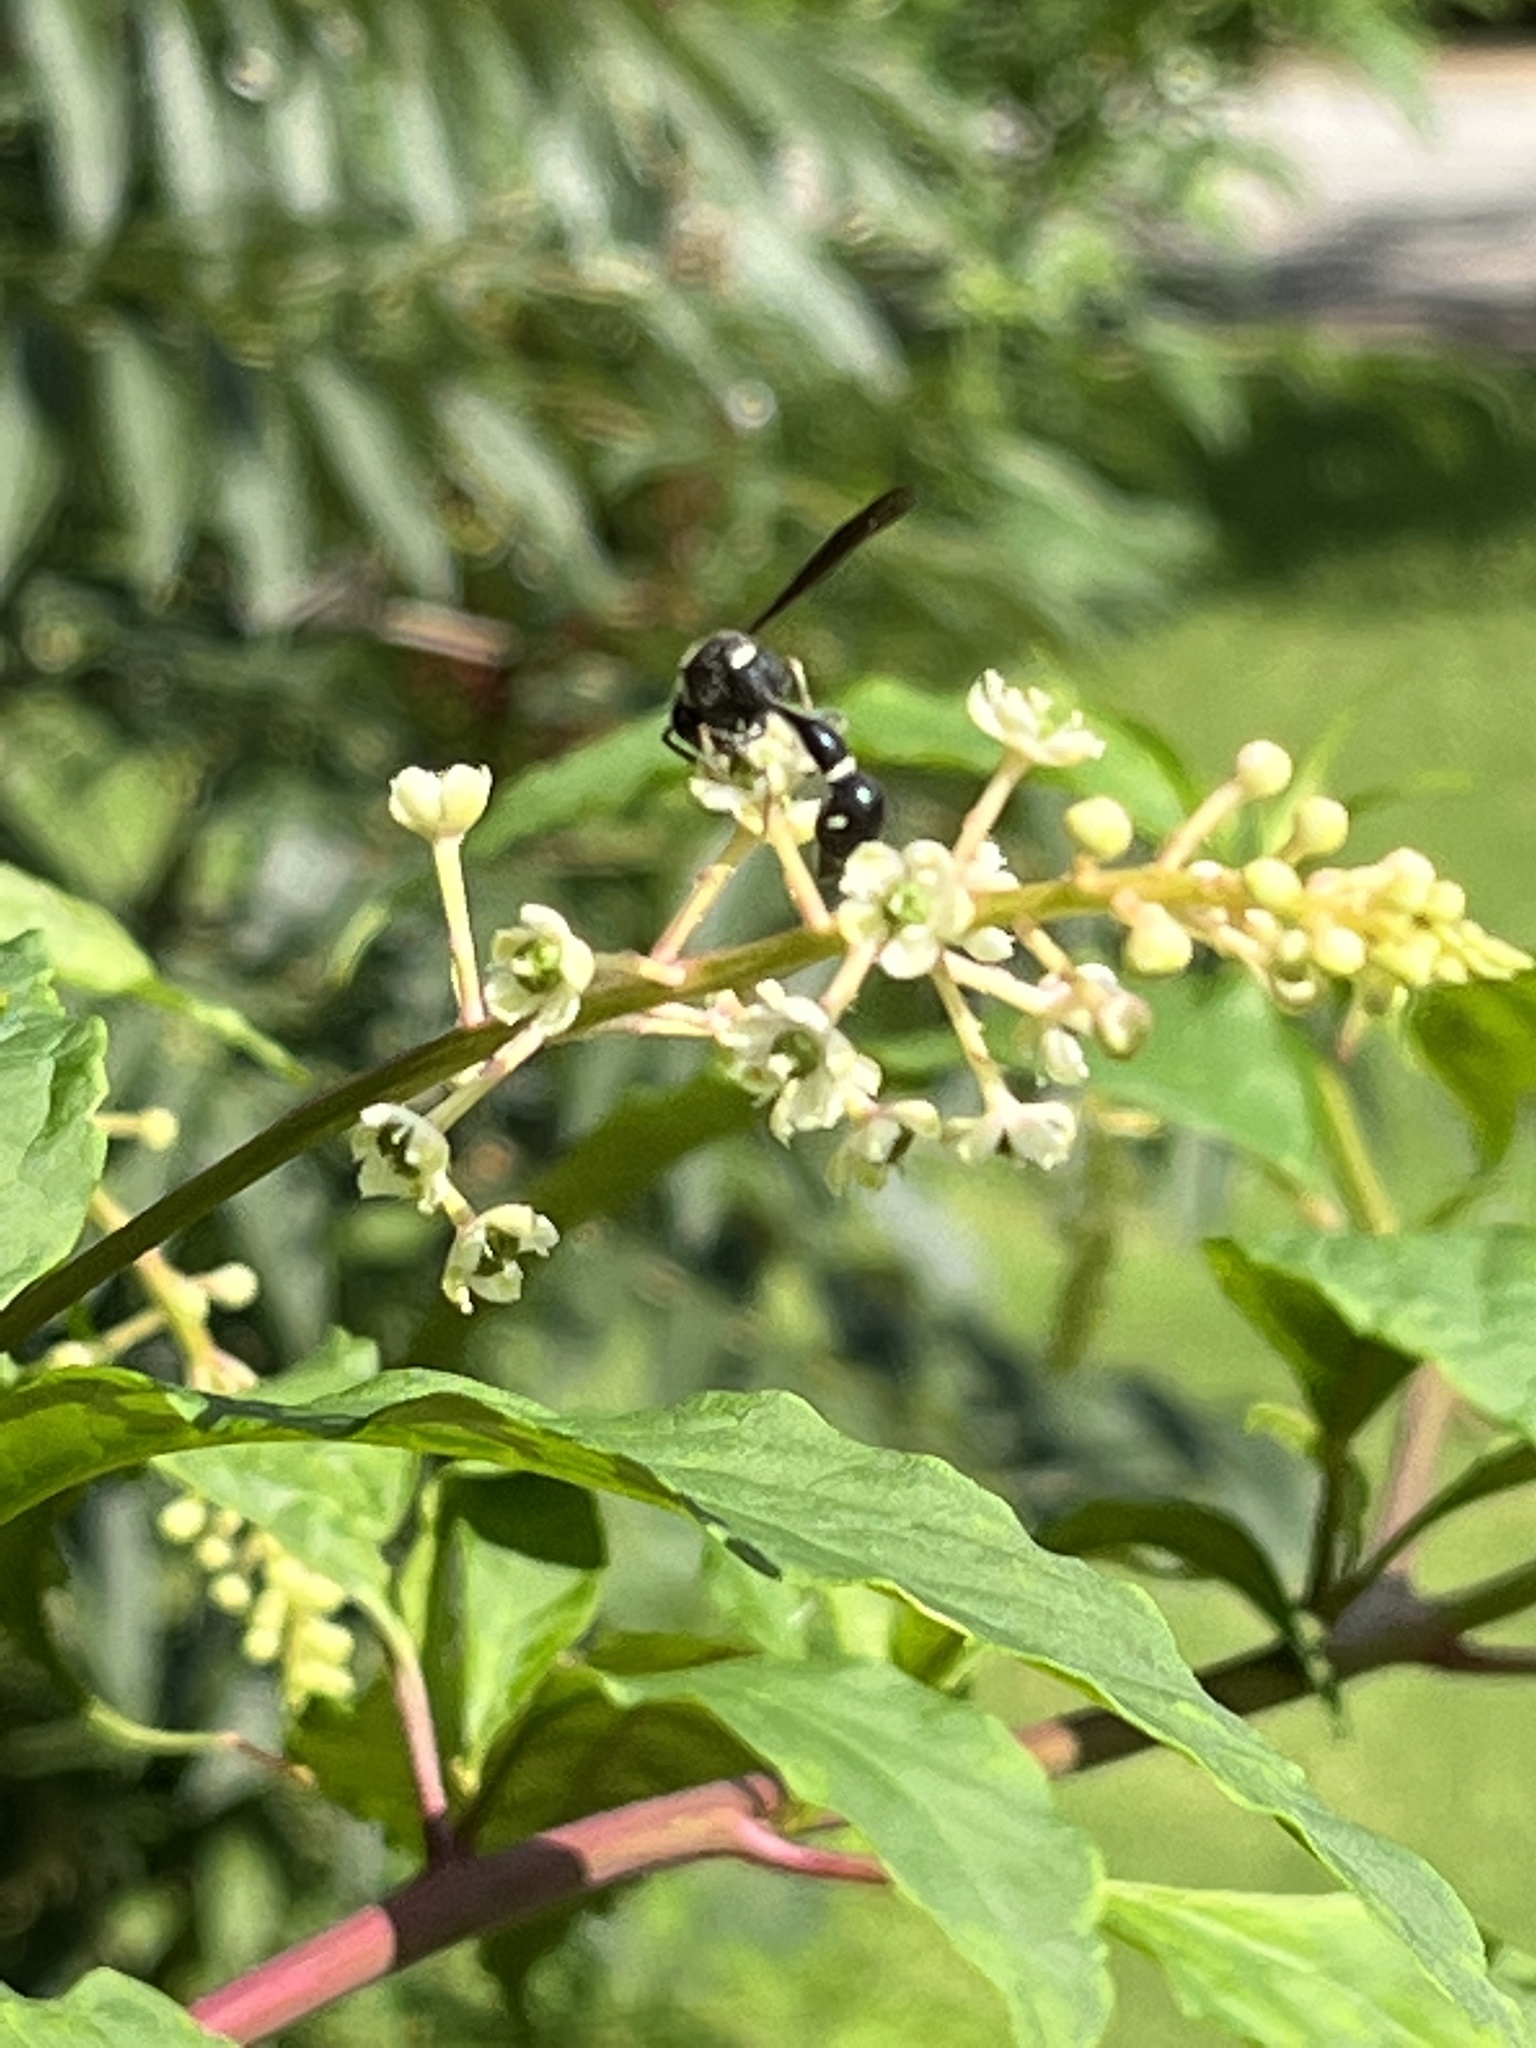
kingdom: Animalia
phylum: Arthropoda
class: Insecta
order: Hymenoptera
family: Vespidae
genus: Eumenes
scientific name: Eumenes fraternus
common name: Fraternal potter wasp
